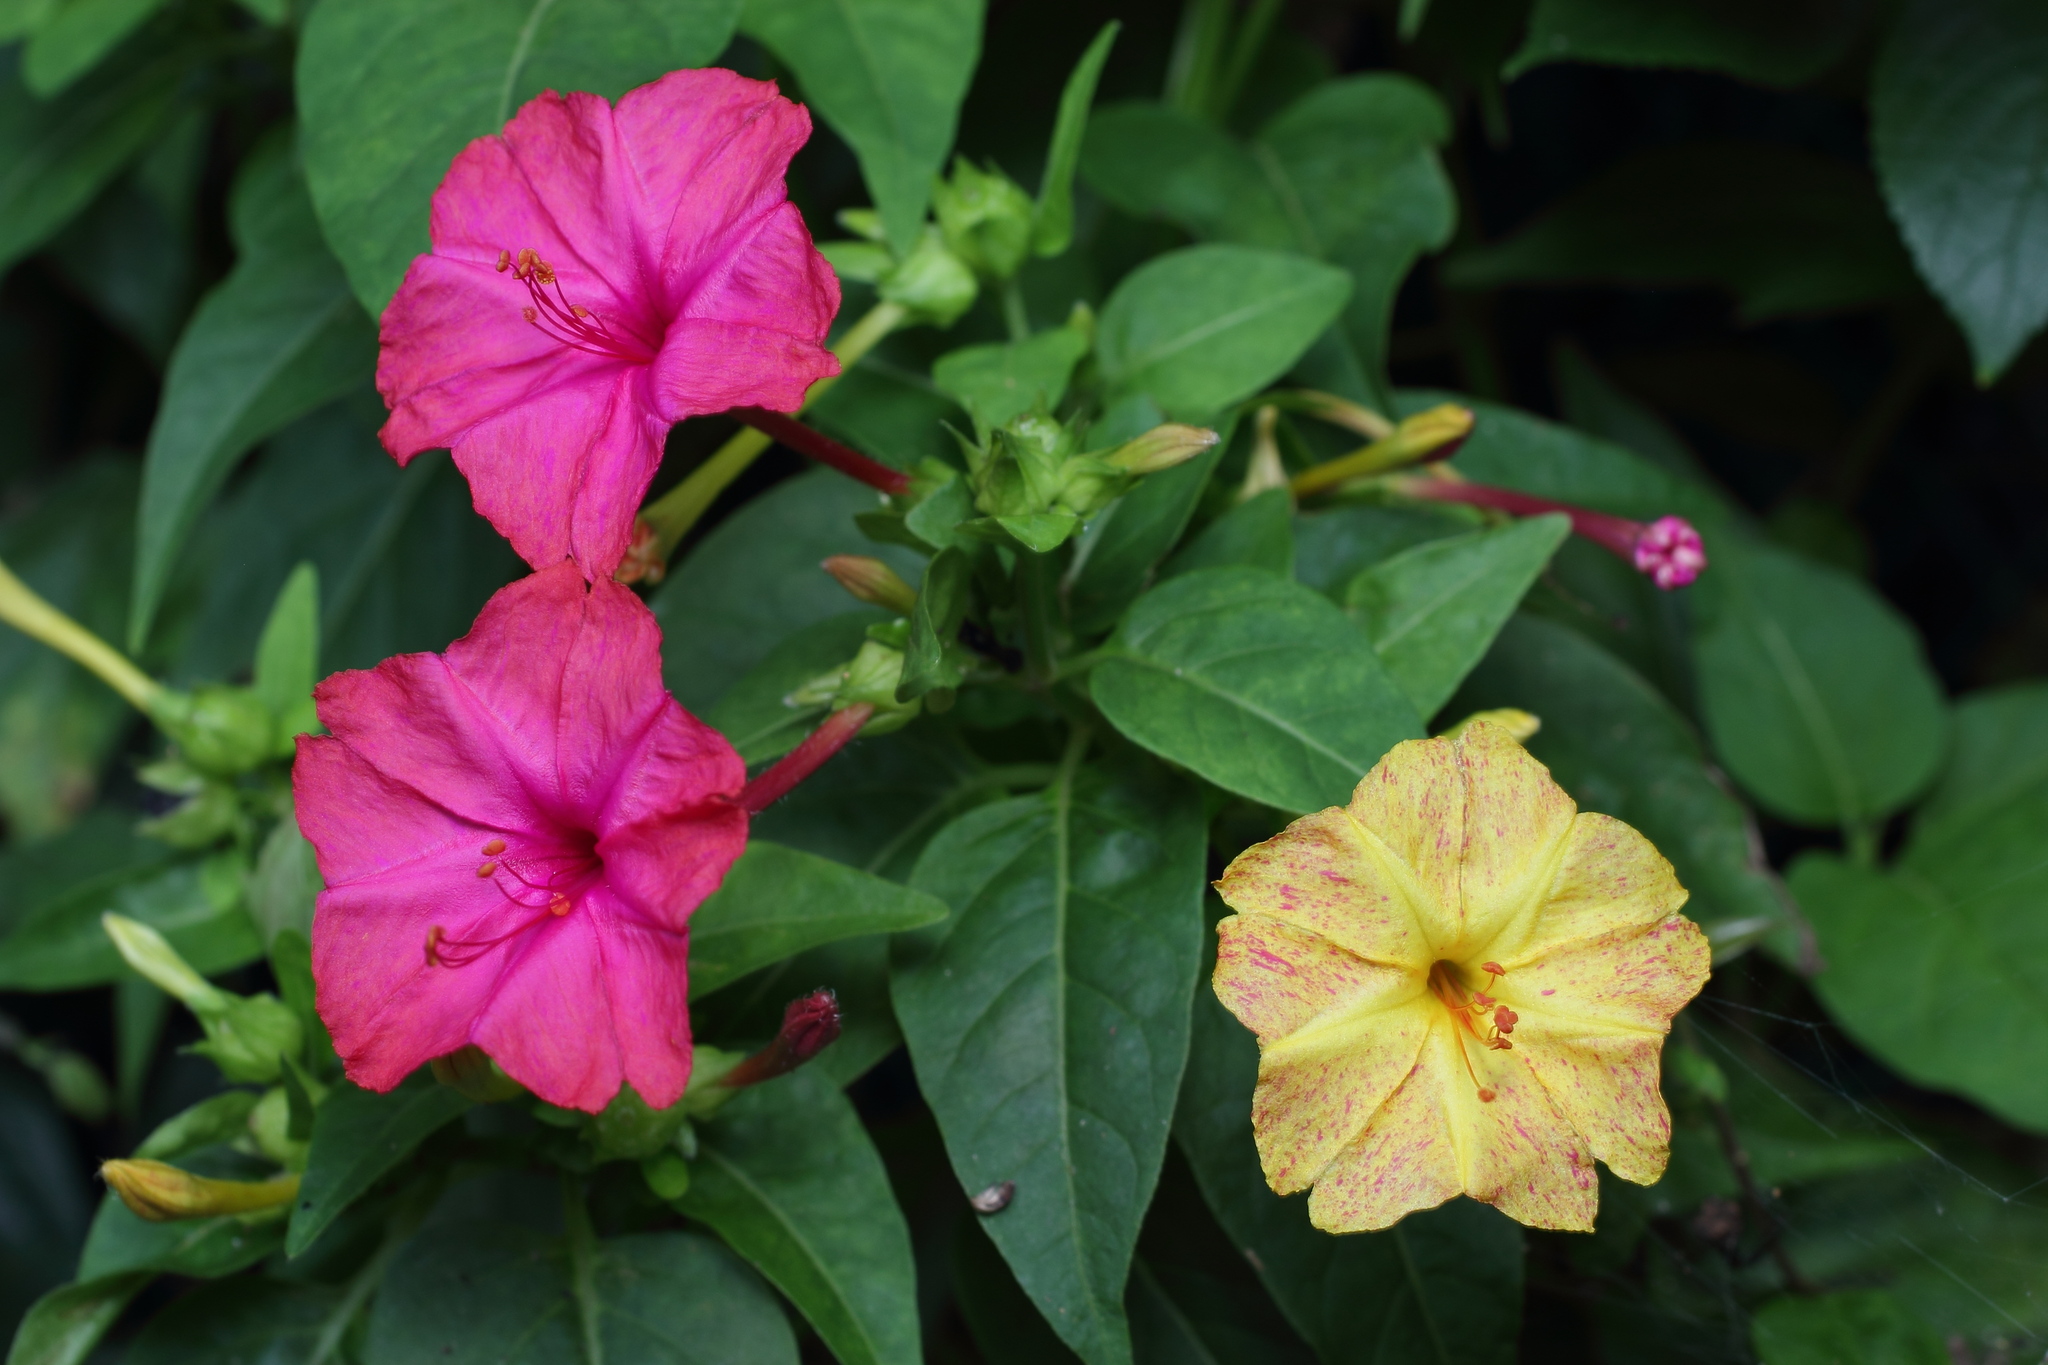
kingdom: Plantae
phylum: Tracheophyta
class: Magnoliopsida
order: Caryophyllales
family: Nyctaginaceae
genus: Mirabilis
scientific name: Mirabilis jalapa
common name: Marvel-of-peru
